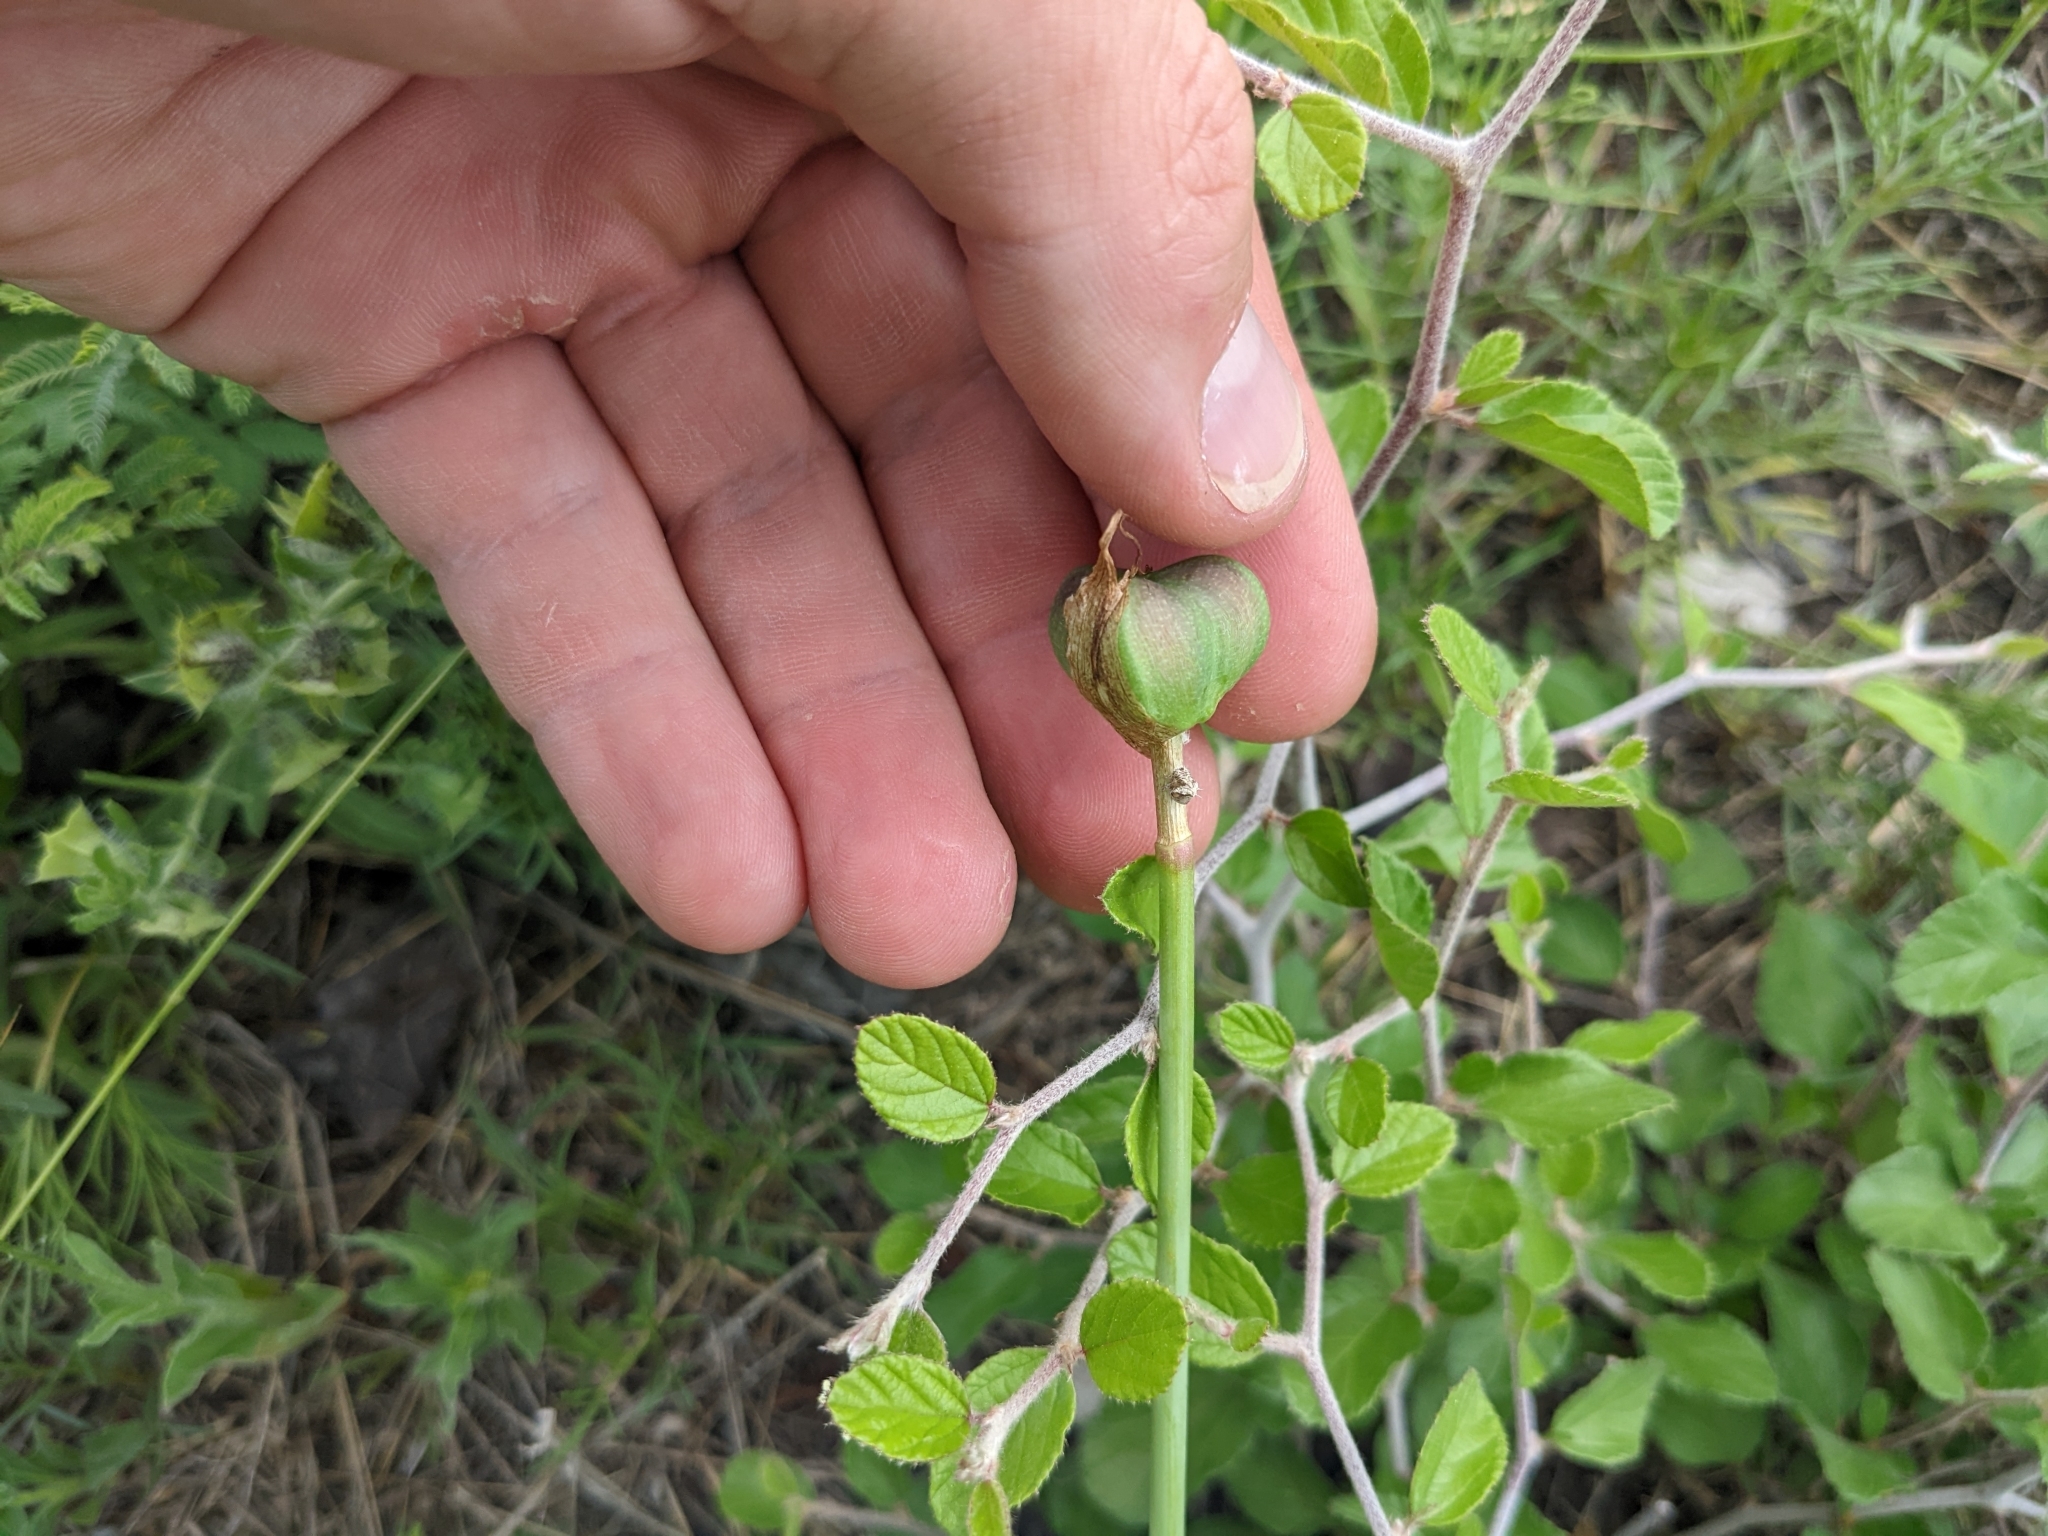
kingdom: Plantae
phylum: Tracheophyta
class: Liliopsida
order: Asparagales
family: Amaryllidaceae
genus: Zephyranthes
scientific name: Zephyranthes drummondii
